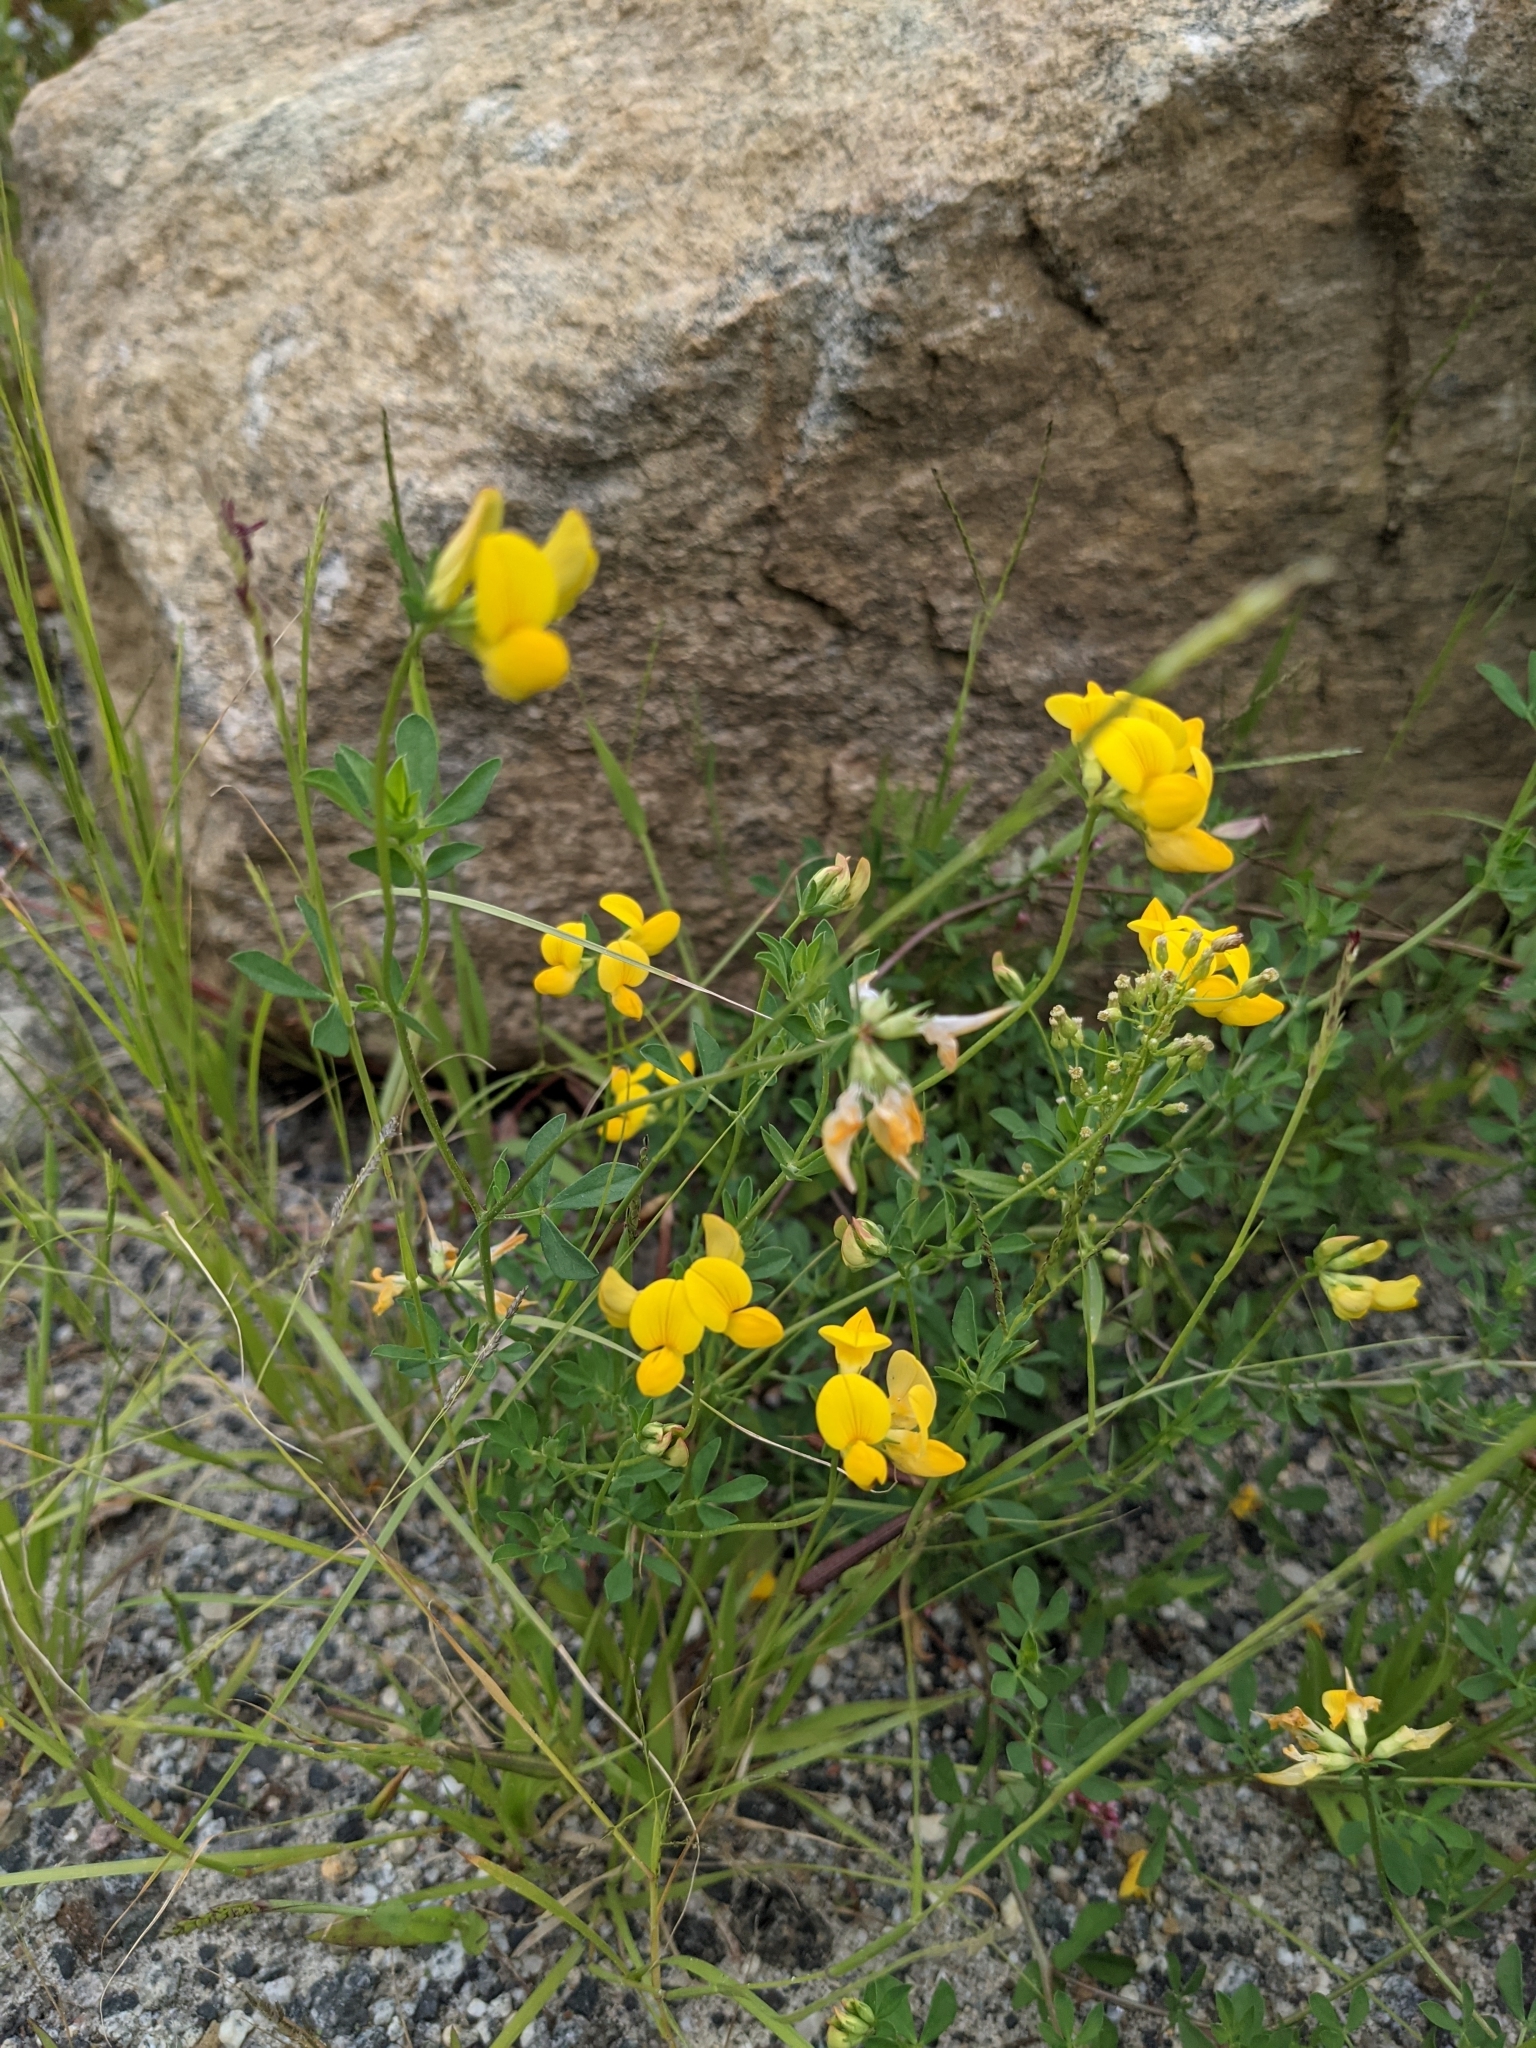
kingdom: Plantae
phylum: Tracheophyta
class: Magnoliopsida
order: Fabales
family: Fabaceae
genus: Lotus
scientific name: Lotus corniculatus
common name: Common bird's-foot-trefoil
